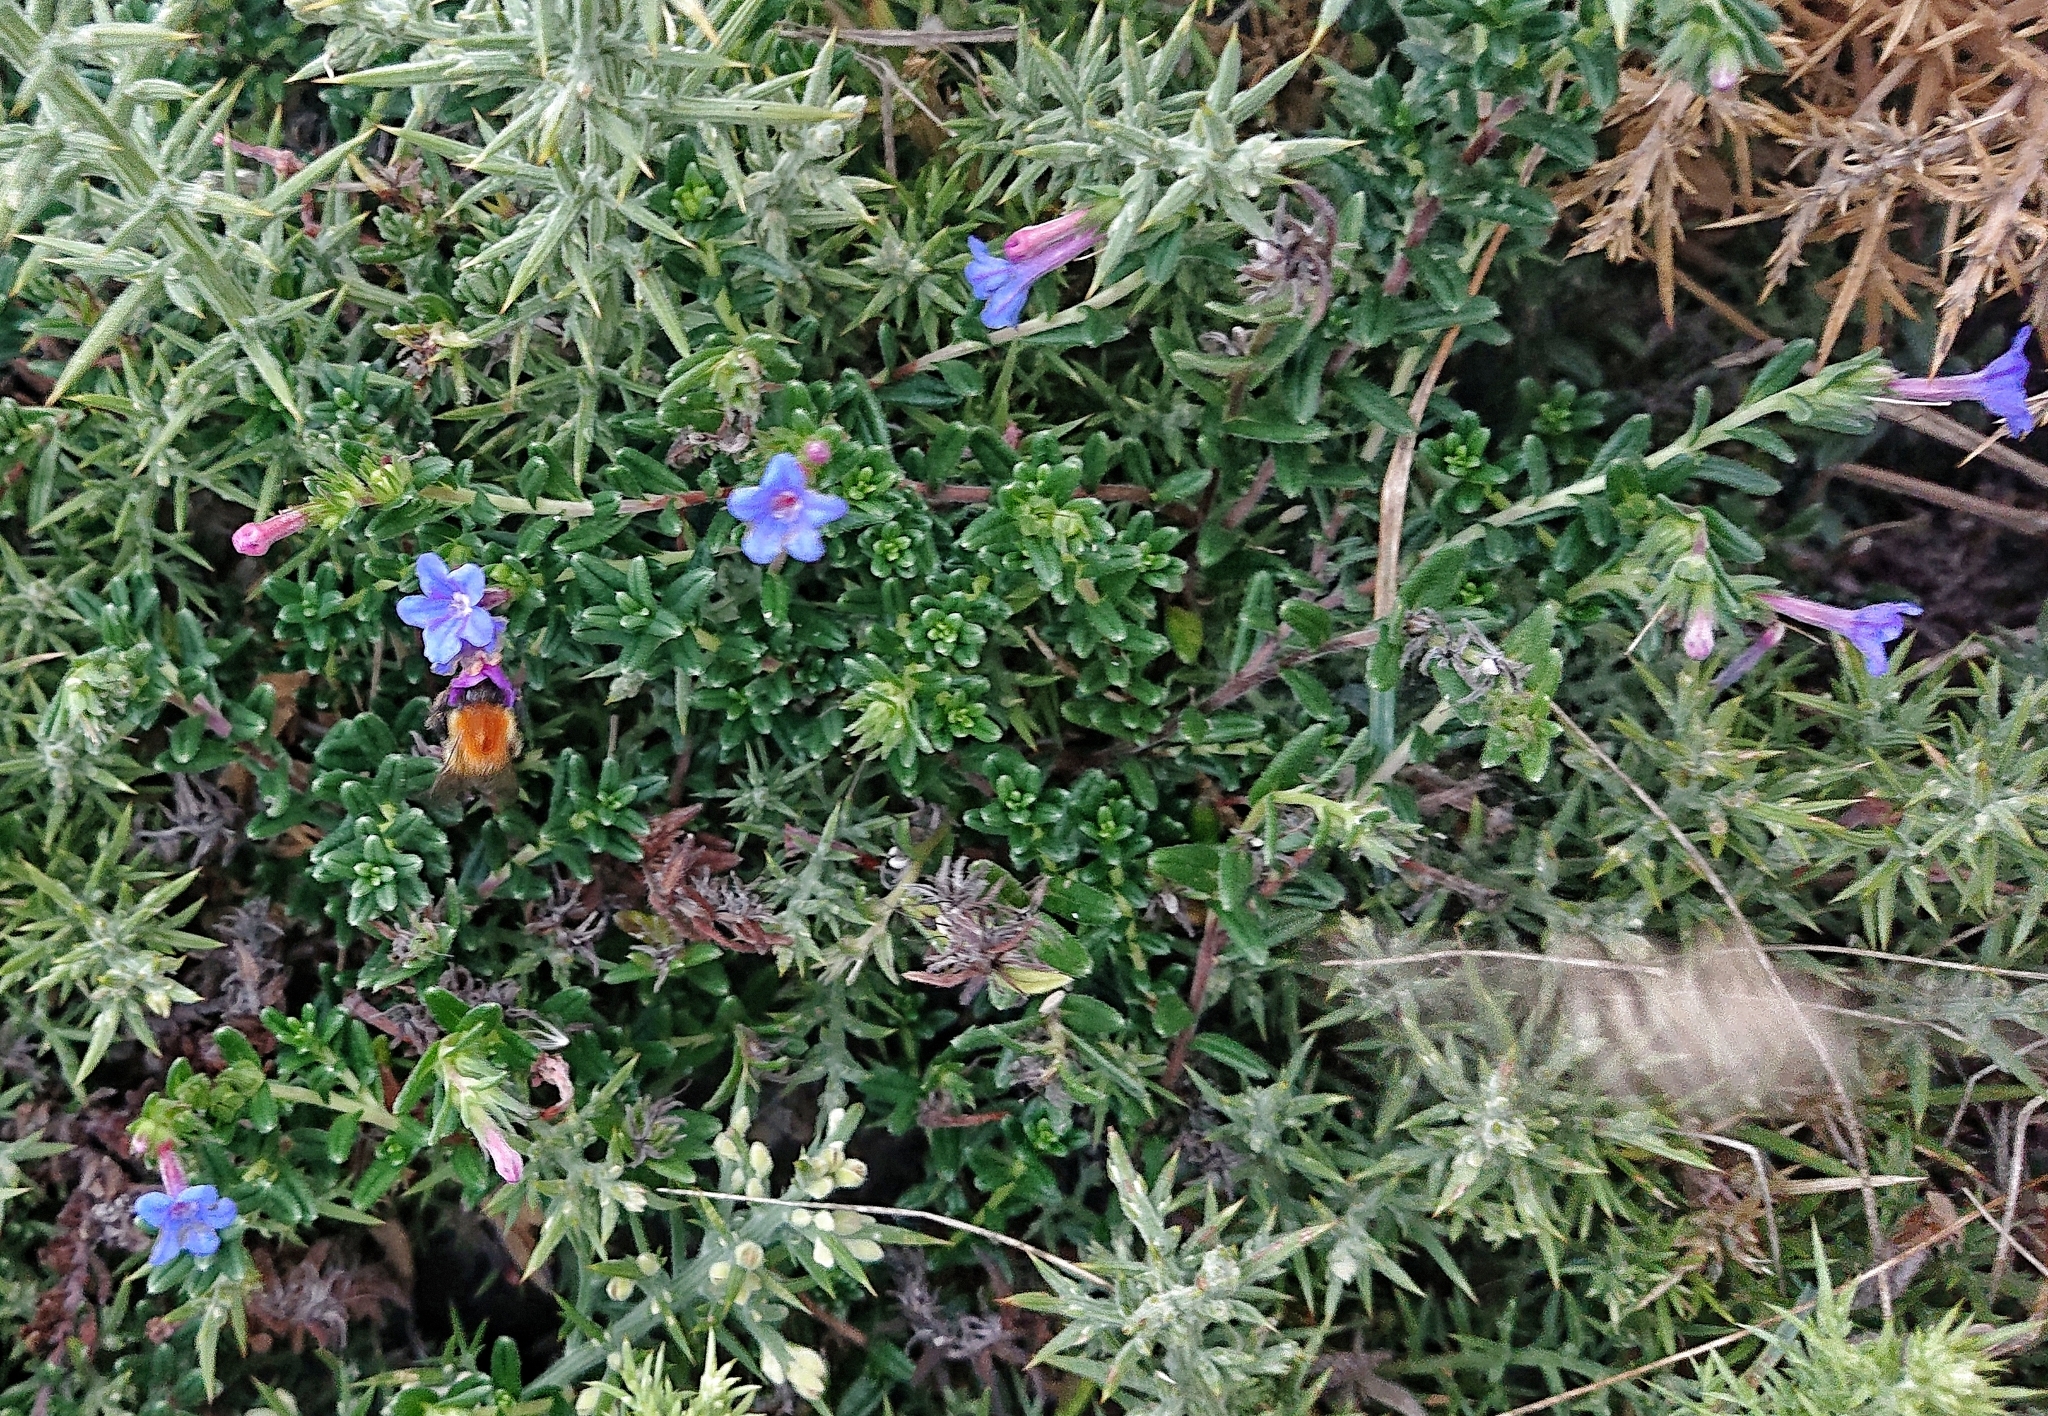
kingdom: Plantae
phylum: Tracheophyta
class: Magnoliopsida
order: Boraginales
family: Boraginaceae
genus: Glandora
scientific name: Glandora prostrata
